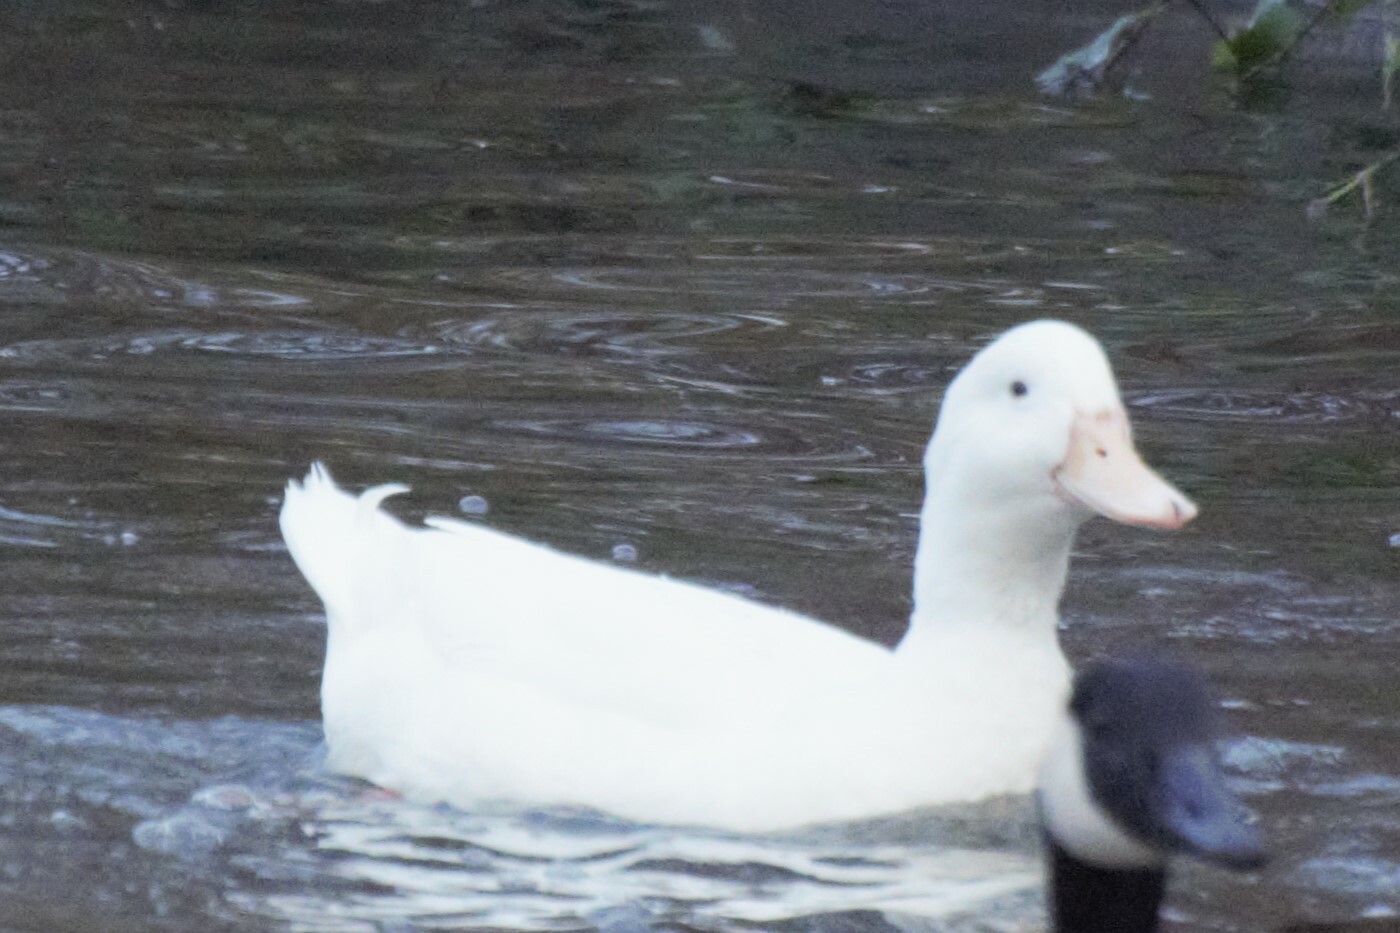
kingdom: Animalia
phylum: Chordata
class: Aves
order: Anseriformes
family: Anatidae
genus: Anas
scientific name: Anas platyrhynchos
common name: Mallard
